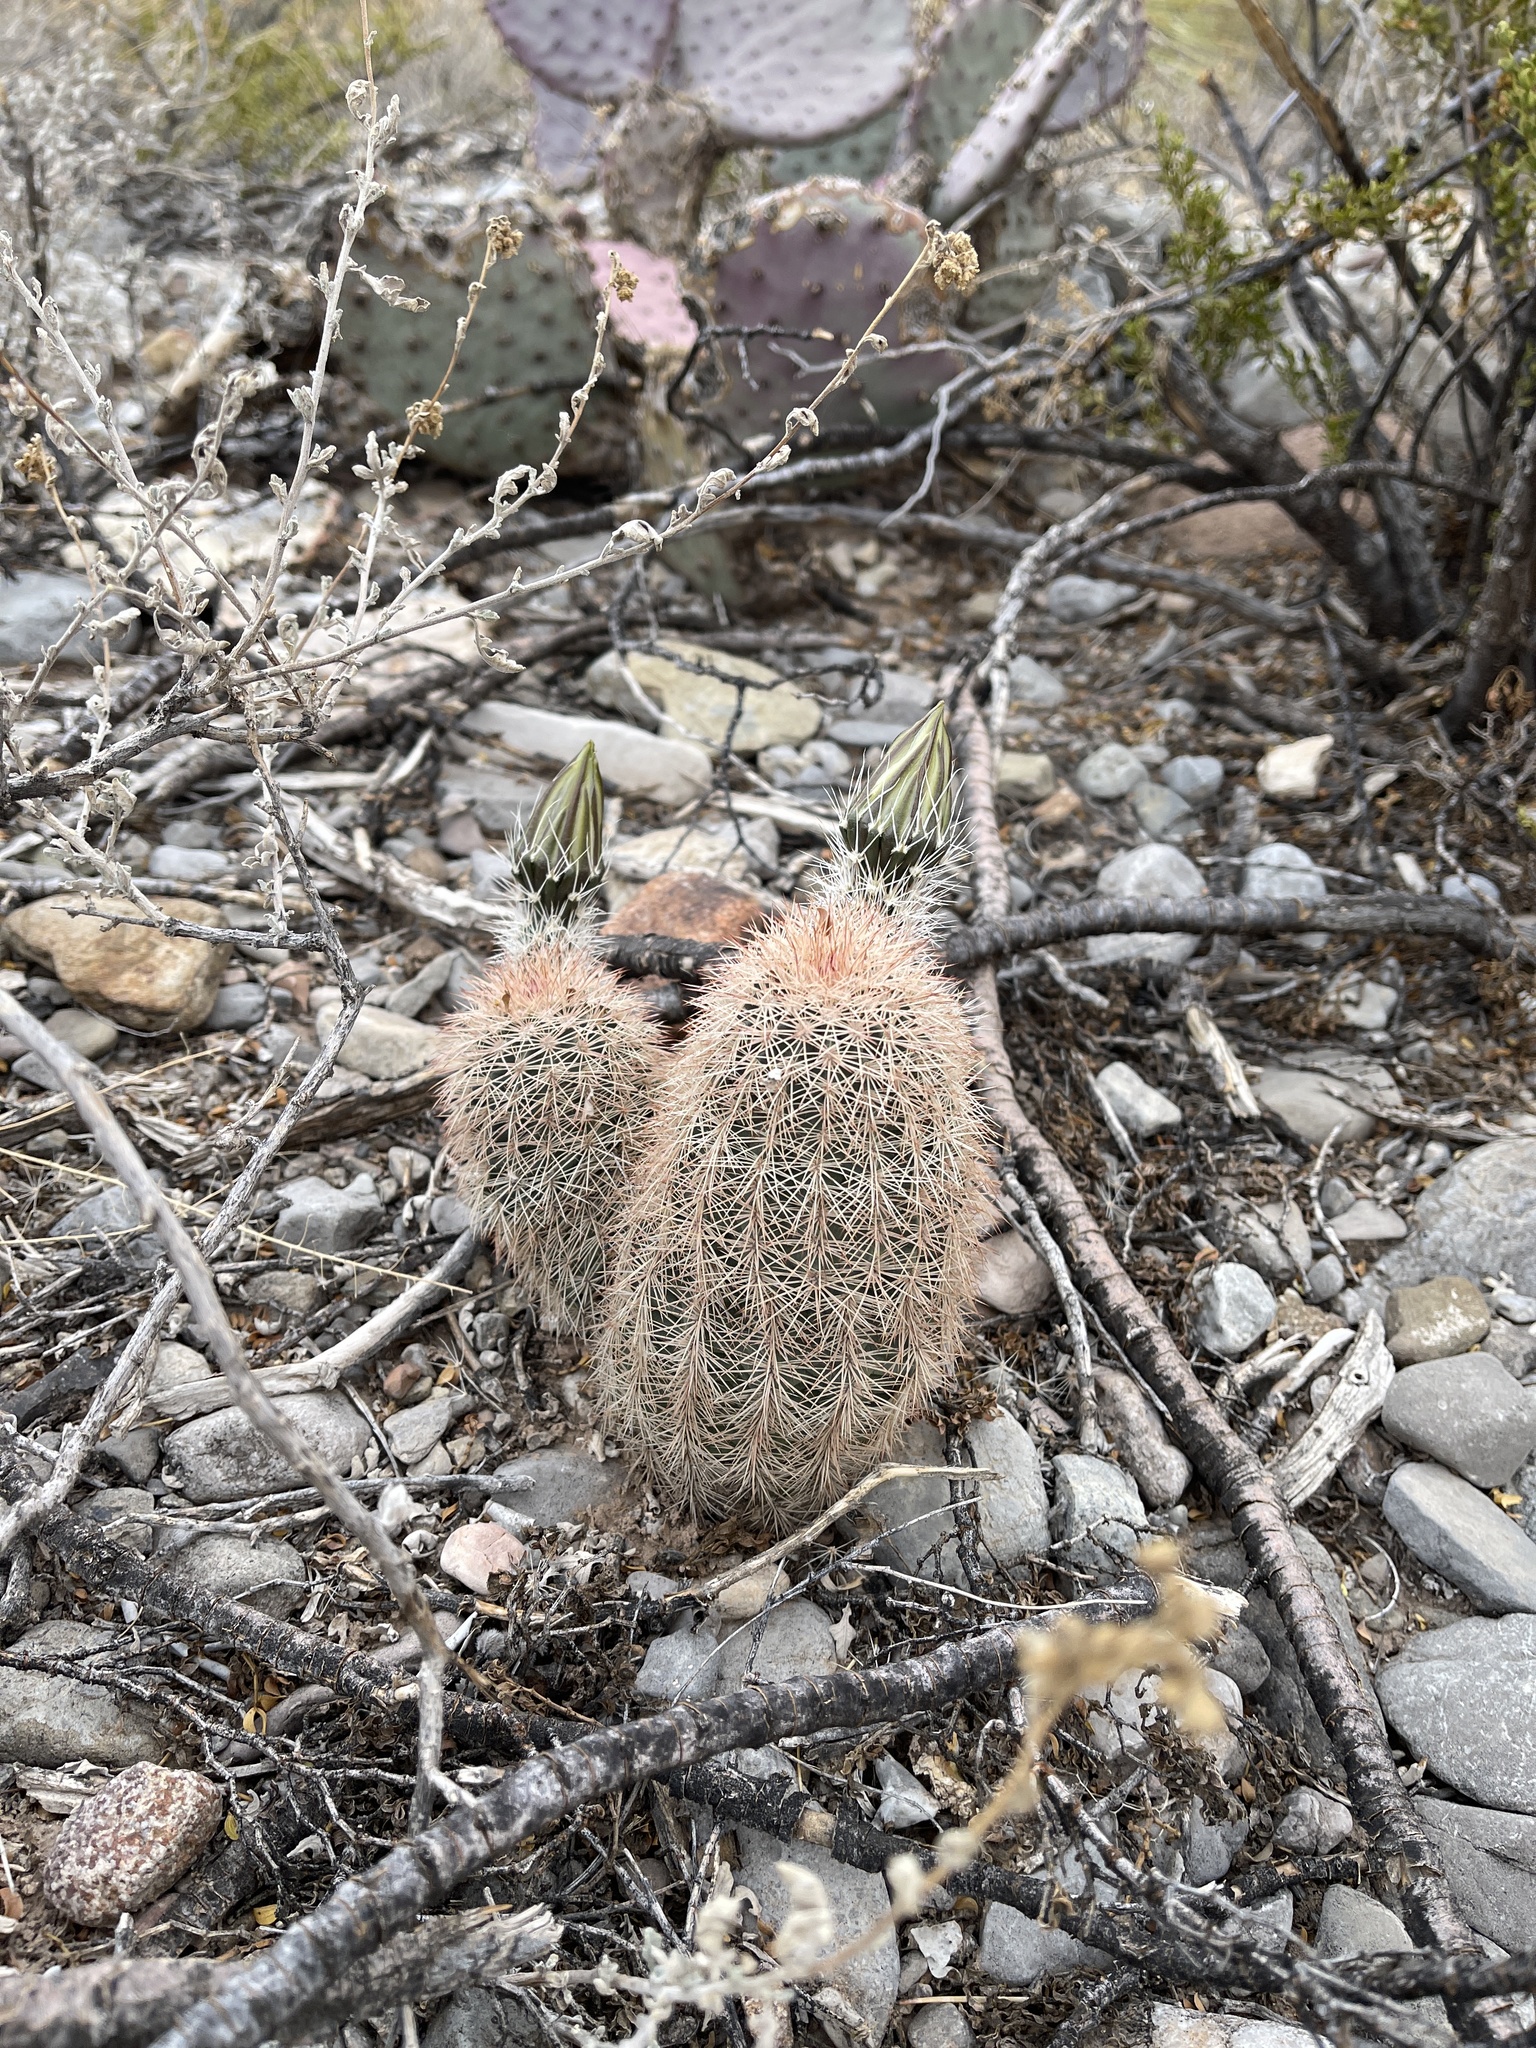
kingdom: Plantae
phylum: Tracheophyta
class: Magnoliopsida
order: Caryophyllales
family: Cactaceae
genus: Echinocereus
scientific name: Echinocereus dasyacanthus
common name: Spiny hedgehog cactus
